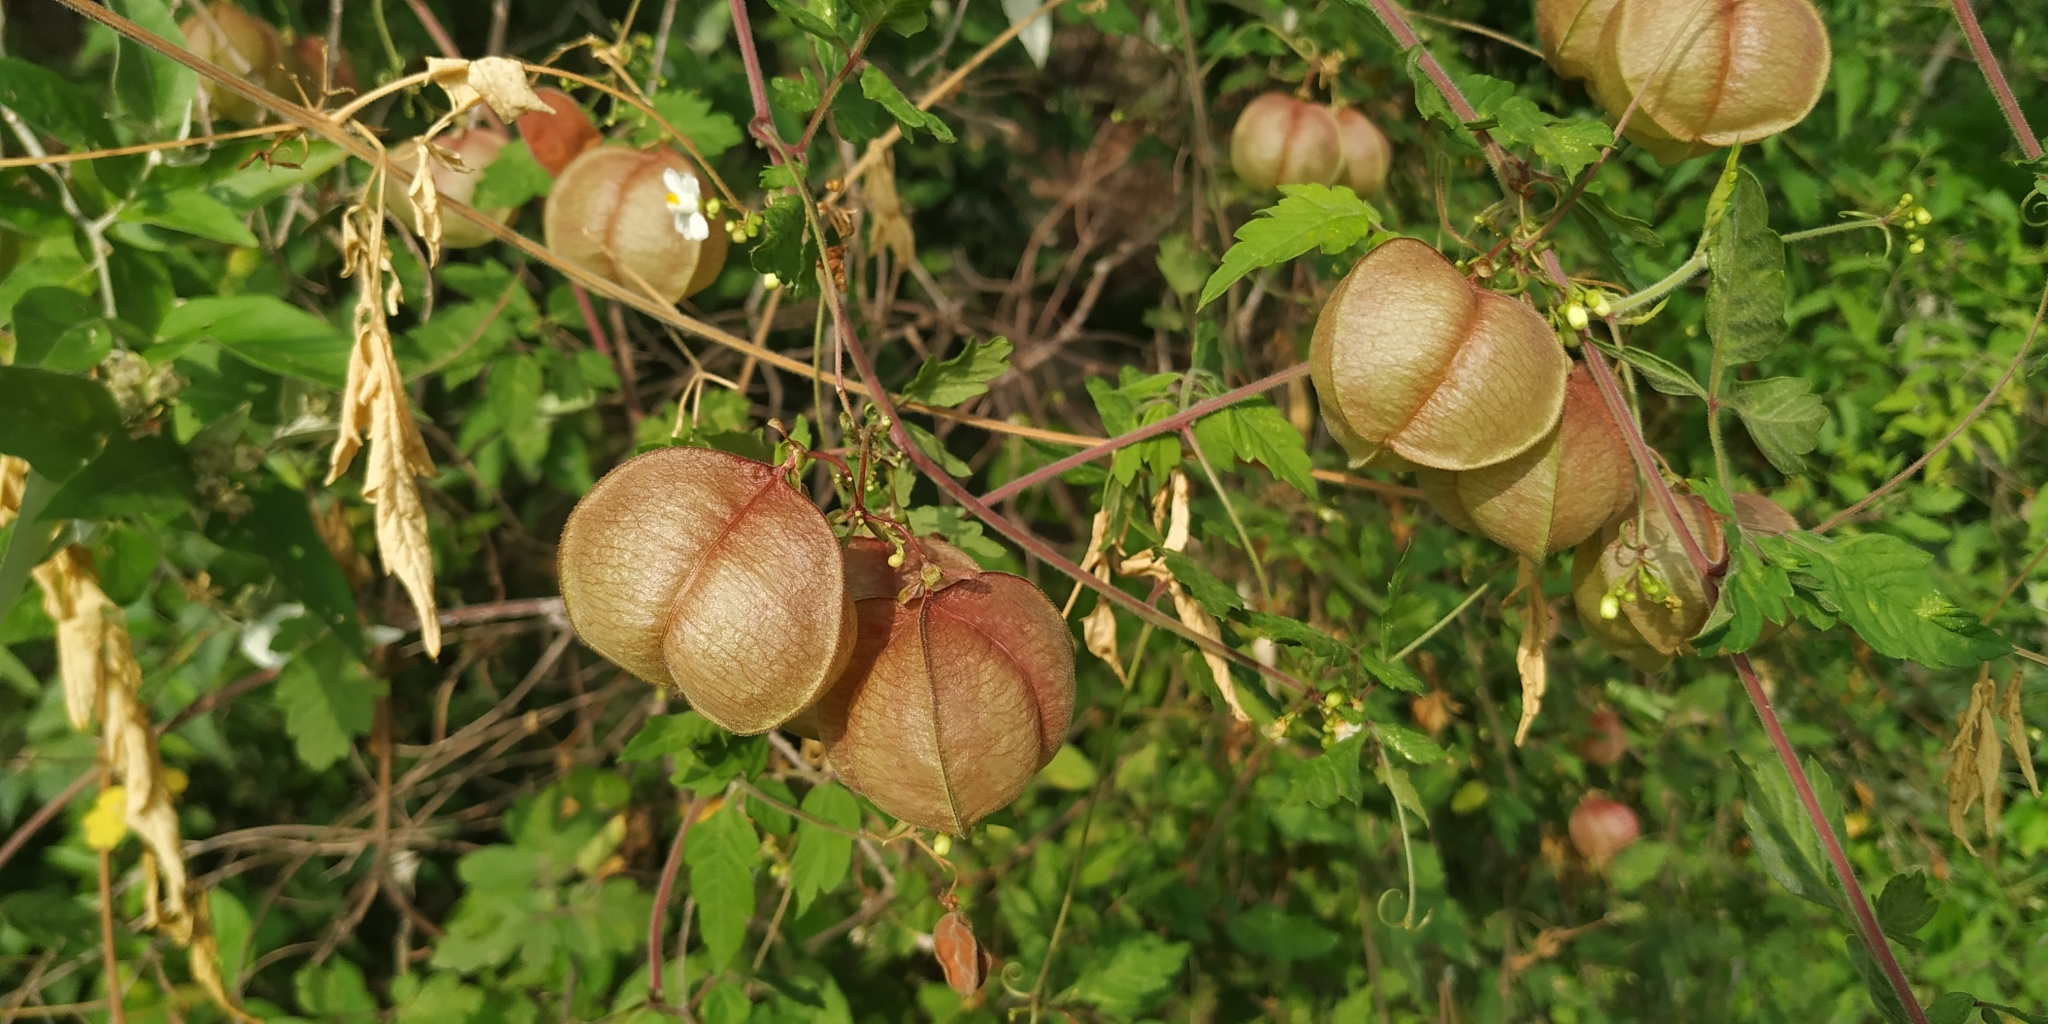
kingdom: Plantae
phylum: Tracheophyta
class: Magnoliopsida
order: Sapindales
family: Sapindaceae
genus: Cardiospermum
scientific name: Cardiospermum halicacabum
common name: Balloon vine
